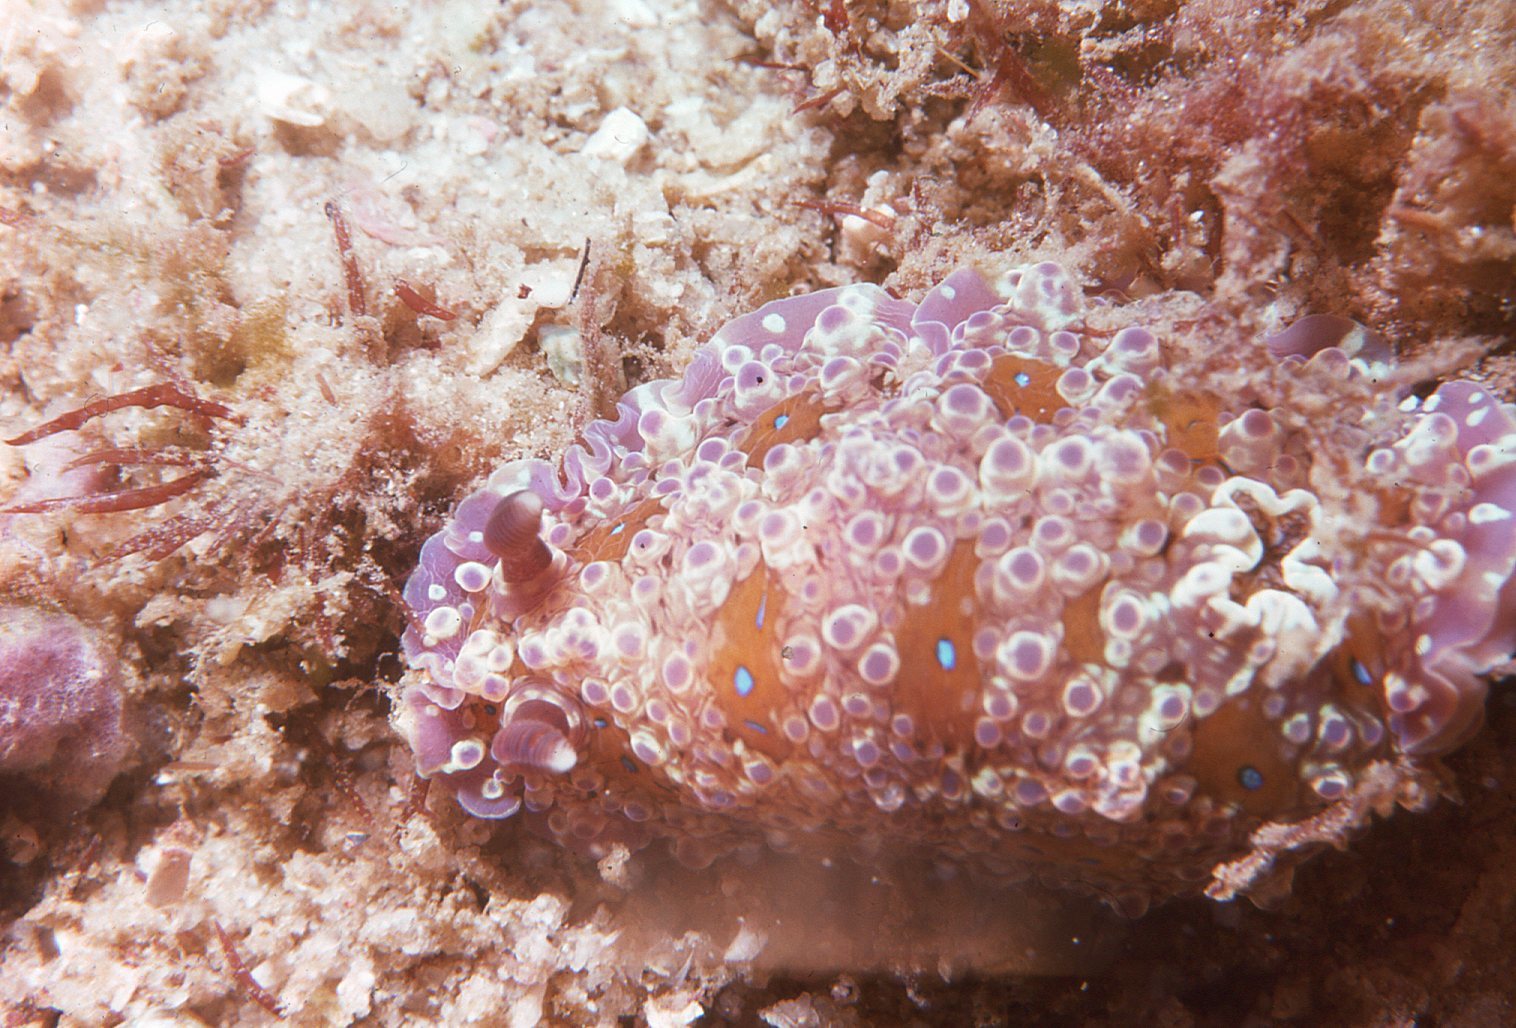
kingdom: Animalia
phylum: Mollusca
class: Gastropoda
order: Nudibranchia
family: Dendrodorididae
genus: Dendrodoris
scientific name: Dendrodoris krusensternii
